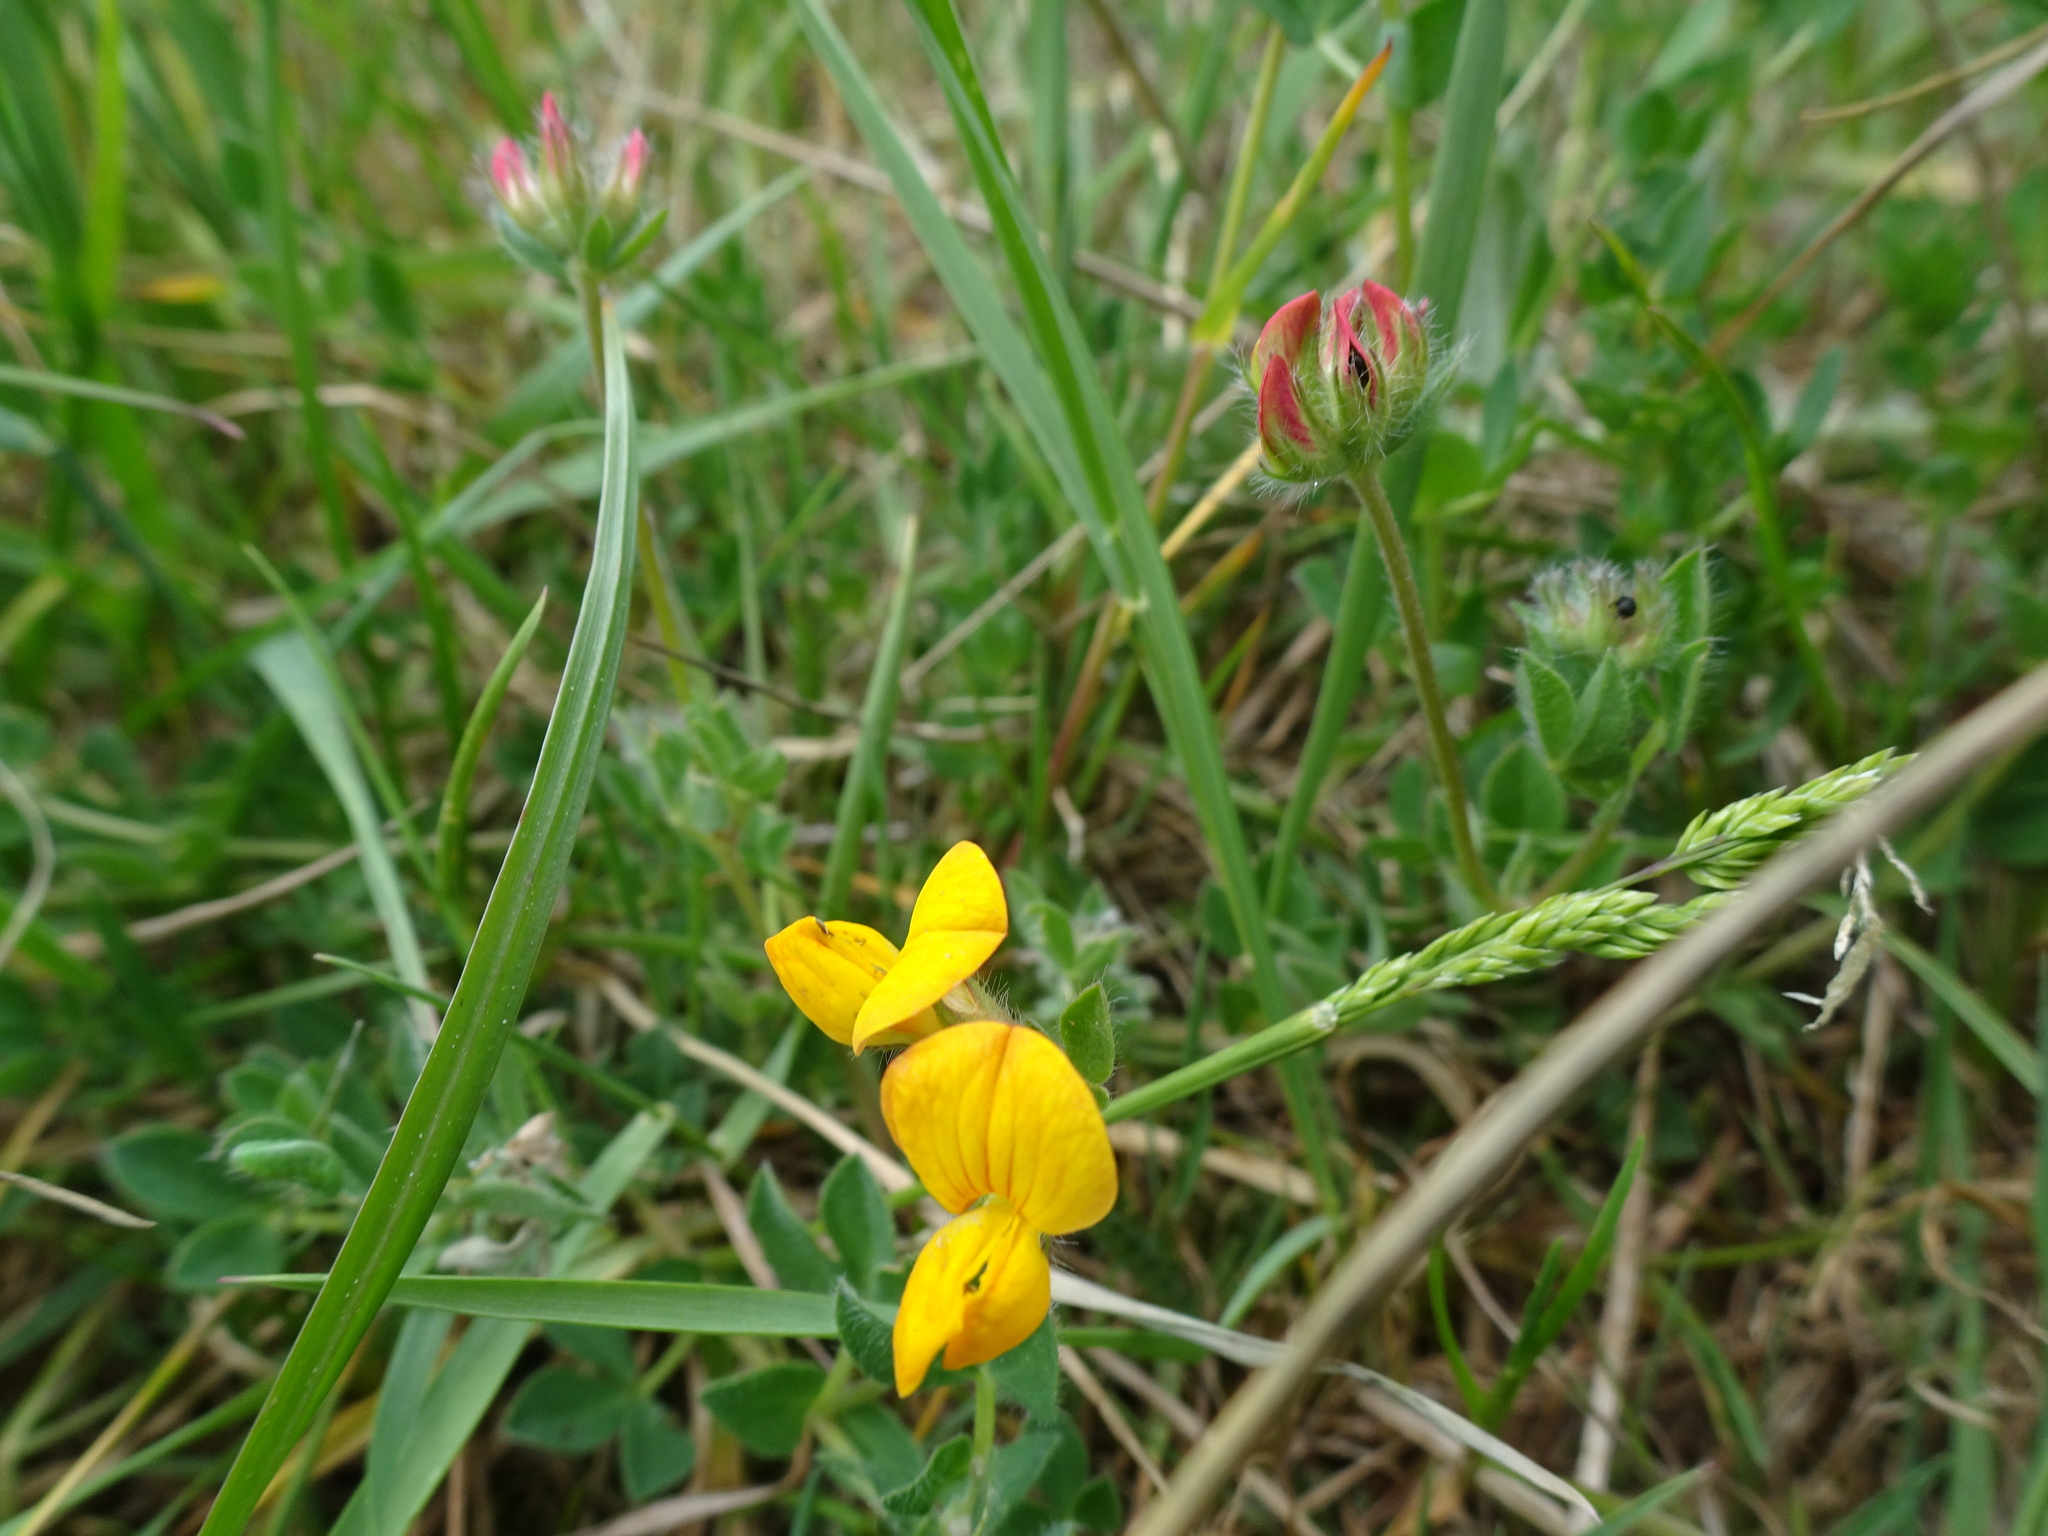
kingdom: Plantae
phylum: Tracheophyta
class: Magnoliopsida
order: Fabales
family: Fabaceae
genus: Lotus
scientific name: Lotus corniculatus
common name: Common bird's-foot-trefoil
